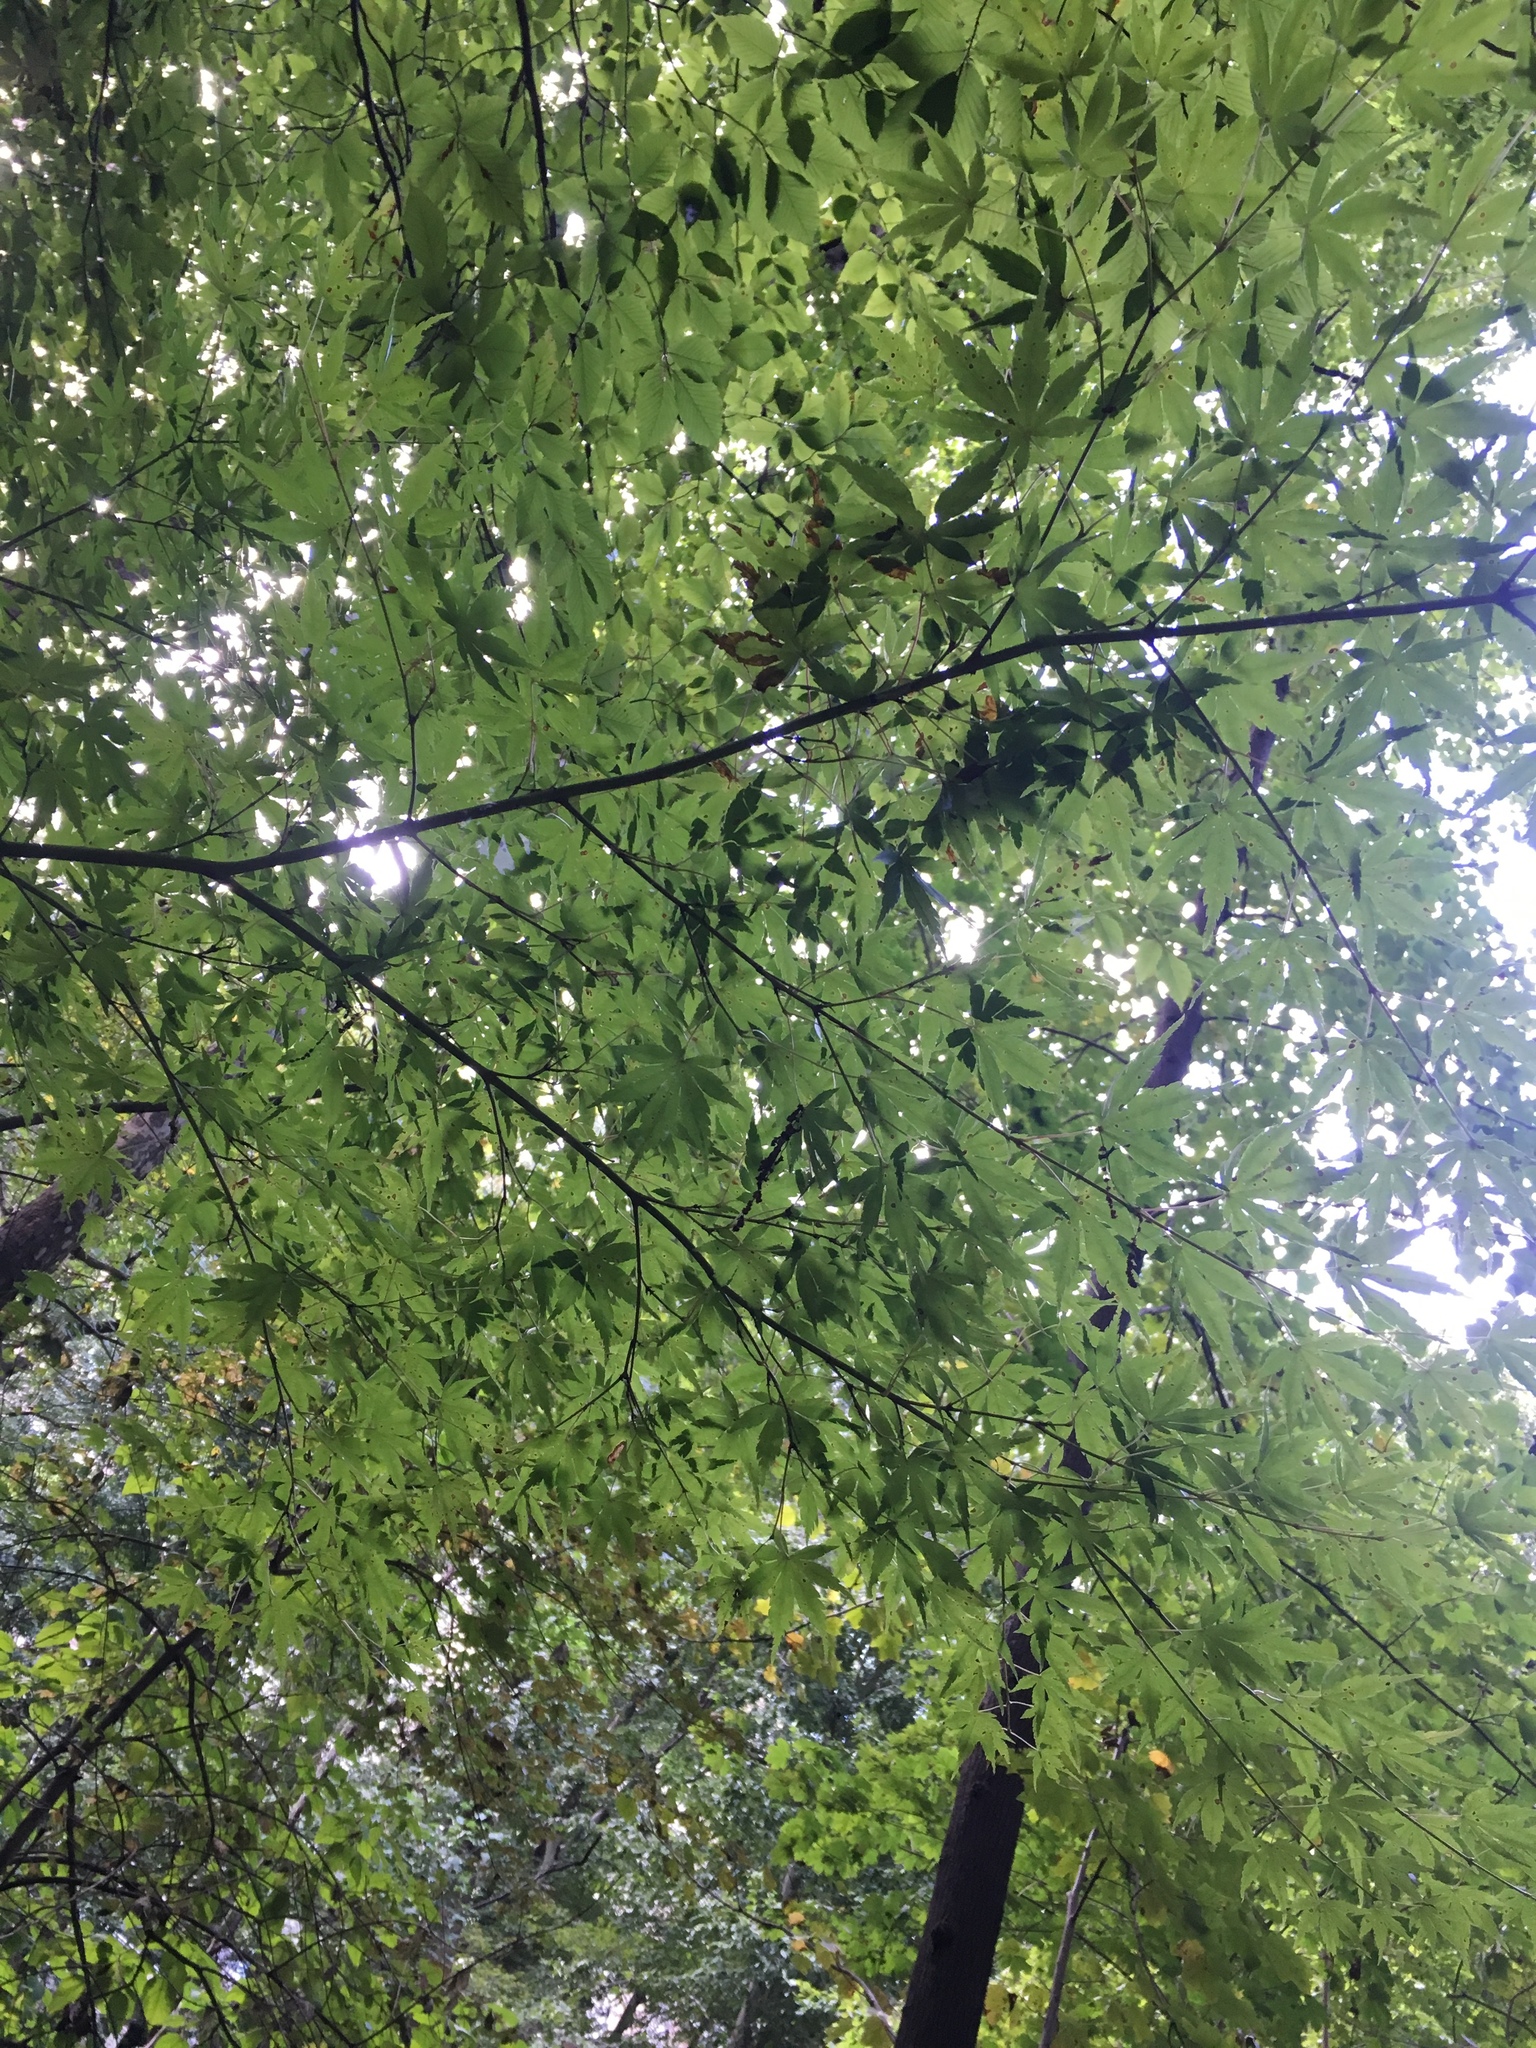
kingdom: Plantae
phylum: Tracheophyta
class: Magnoliopsida
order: Sapindales
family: Sapindaceae
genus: Acer
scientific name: Acer palmatum
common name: Japanese maple
